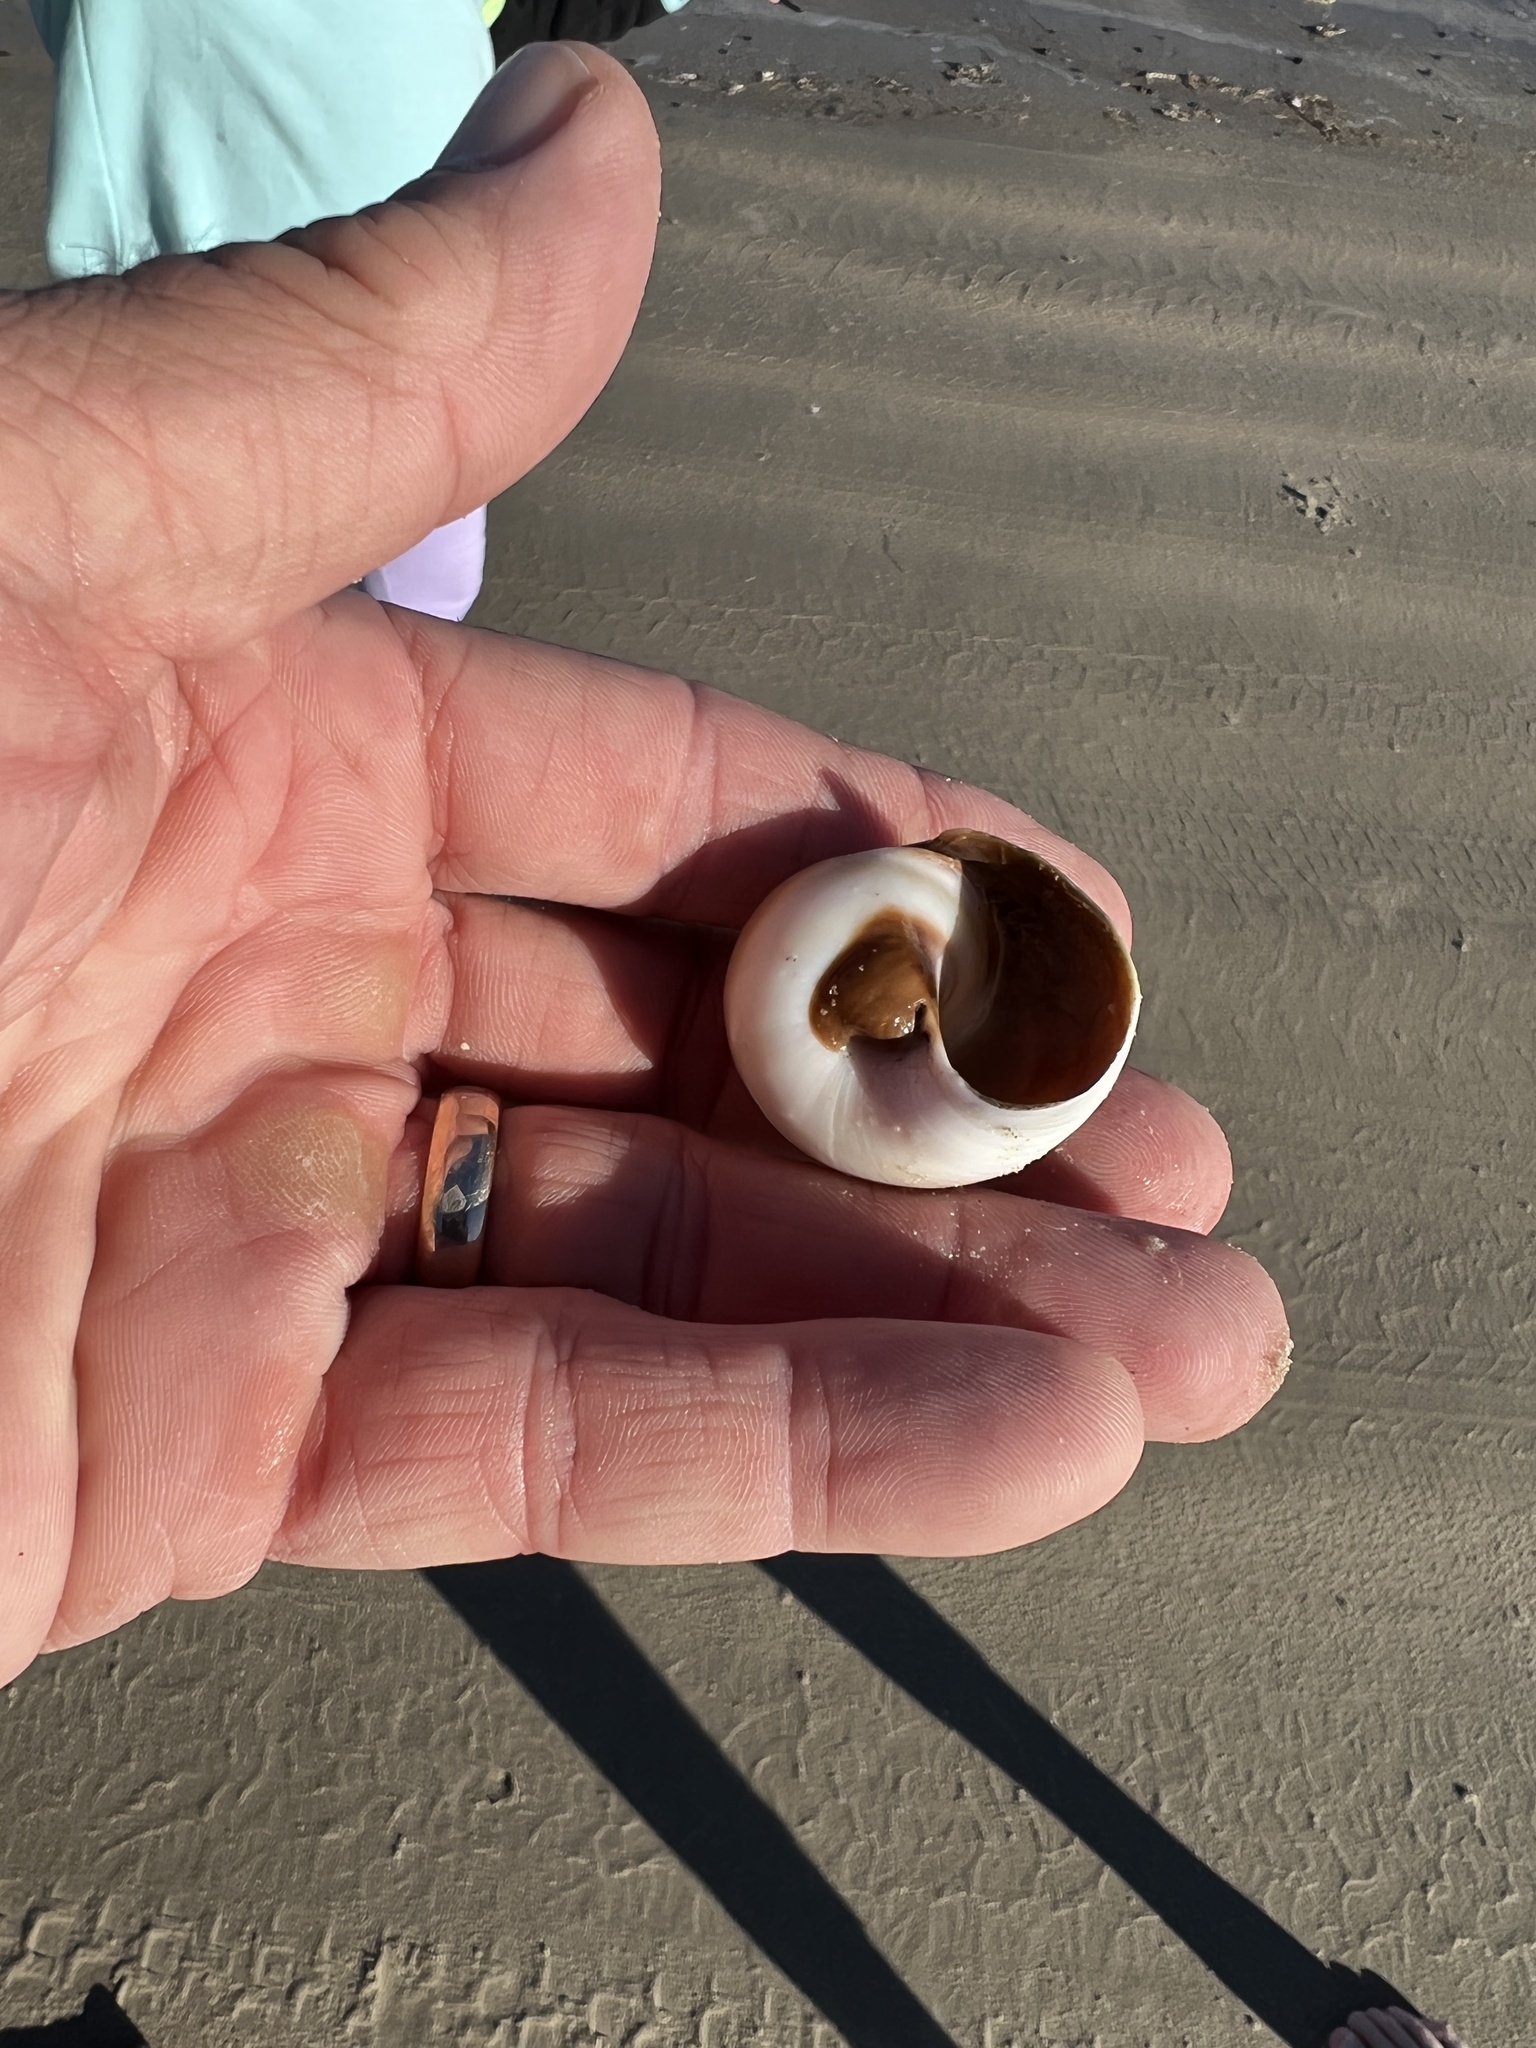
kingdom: Animalia
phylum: Mollusca
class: Gastropoda
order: Littorinimorpha
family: Naticidae
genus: Neverita
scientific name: Neverita duplicata
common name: Lobed moonsnail
